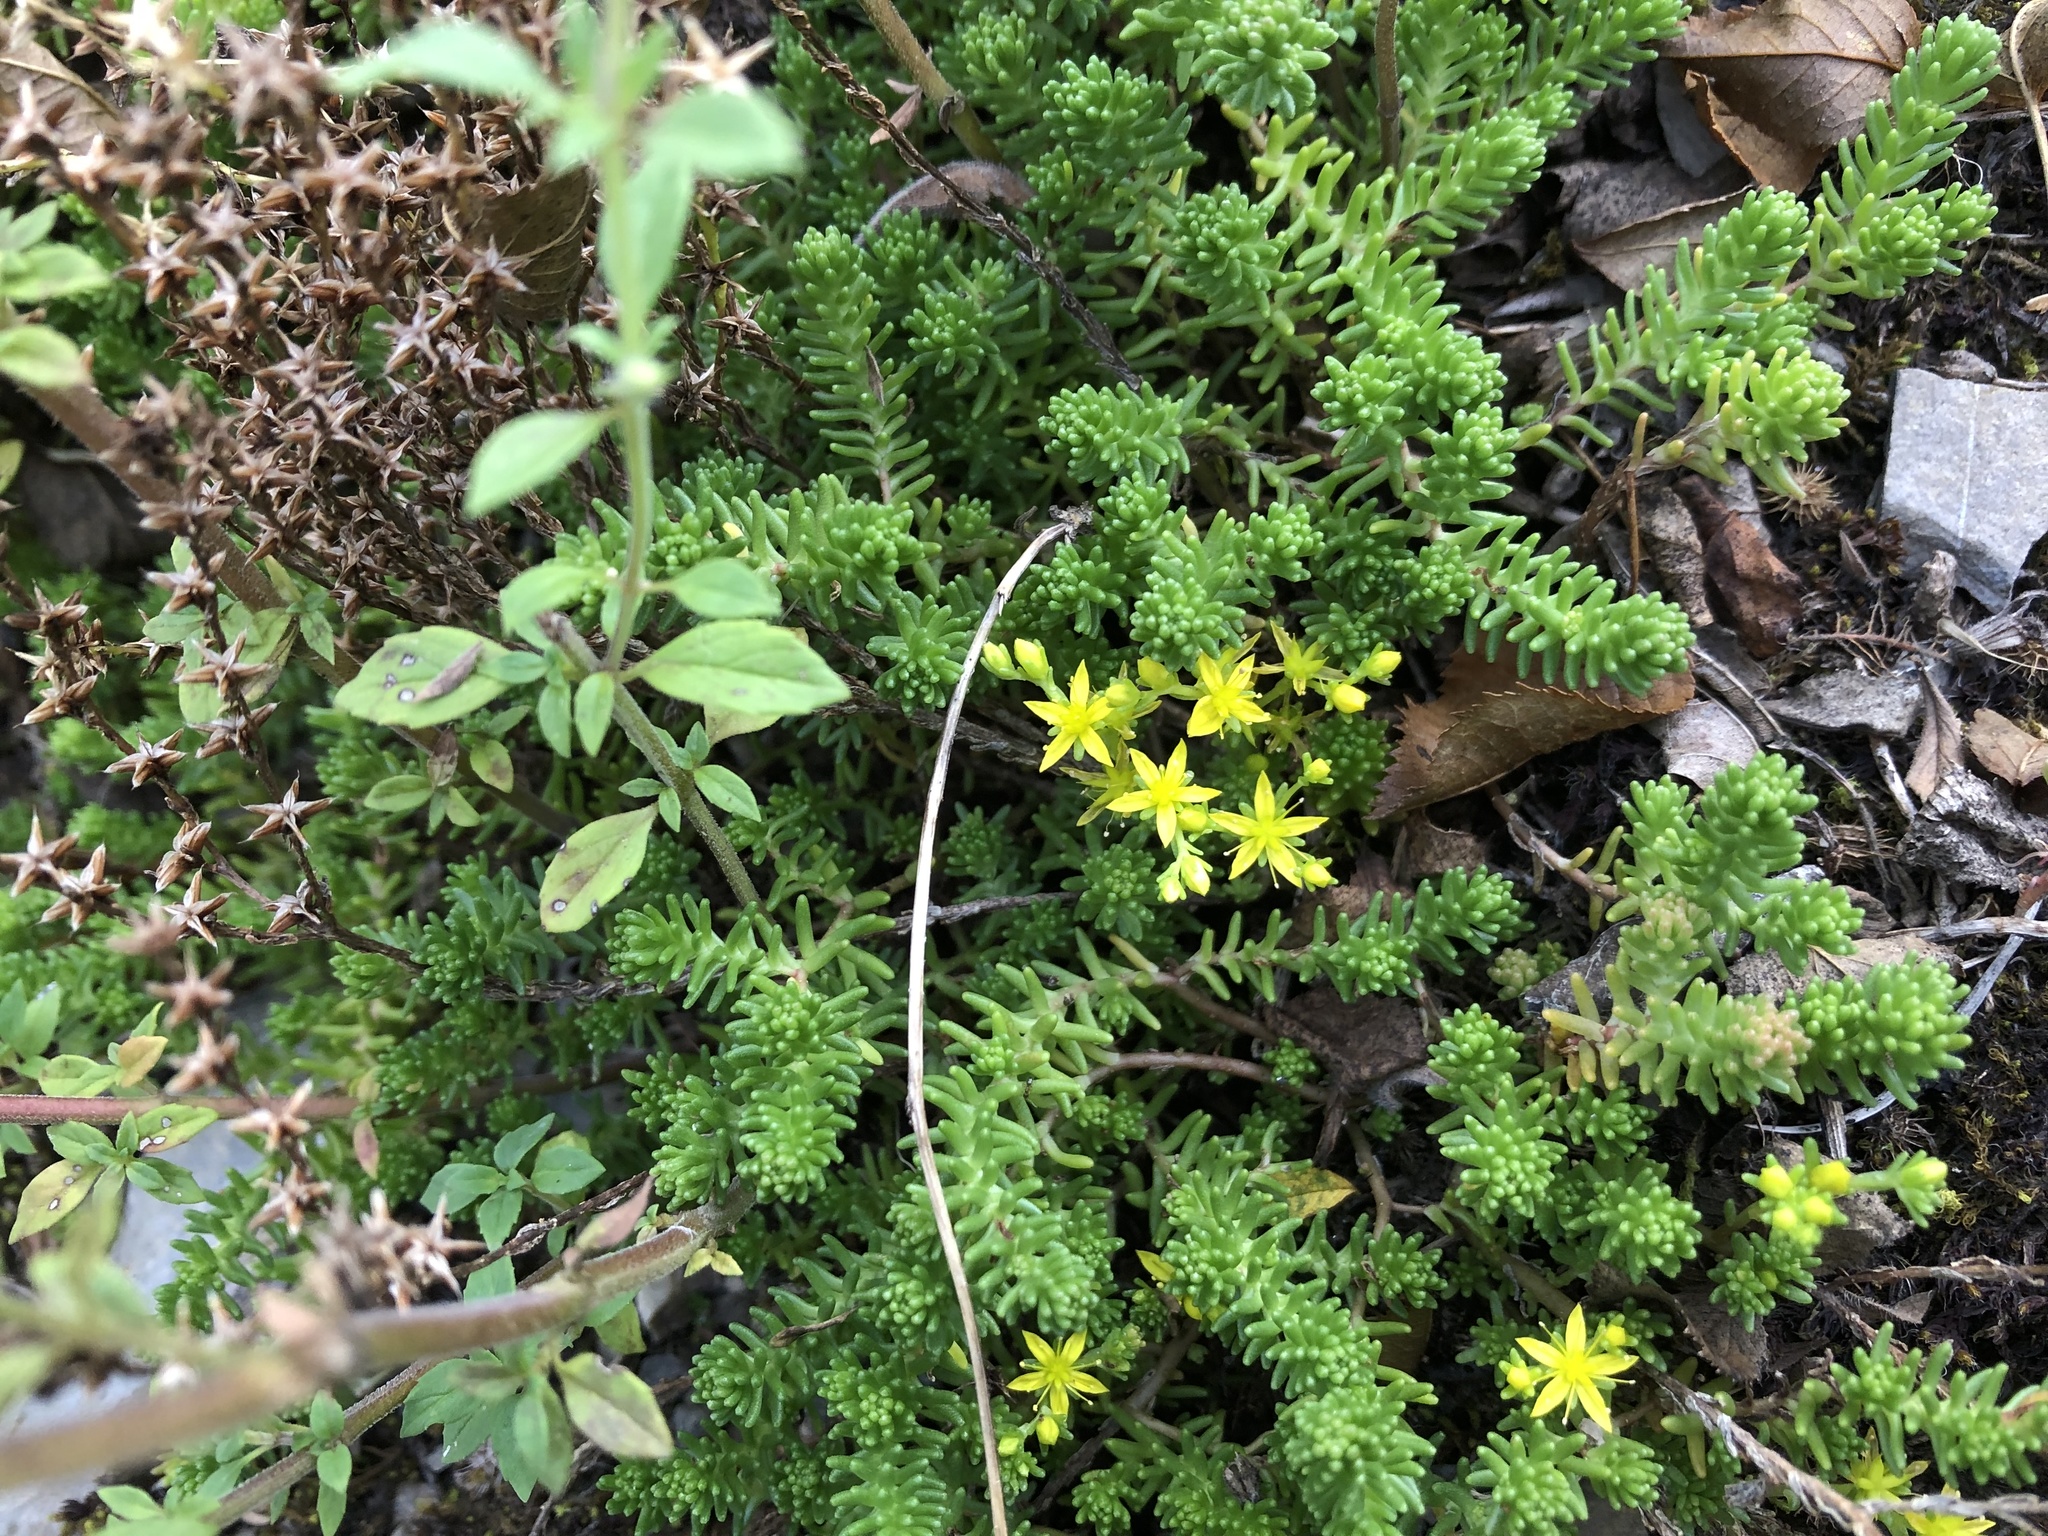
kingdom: Plantae
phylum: Tracheophyta
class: Magnoliopsida
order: Saxifragales
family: Crassulaceae
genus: Sedum
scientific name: Sedum sexangulare
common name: Tasteless stonecrop
